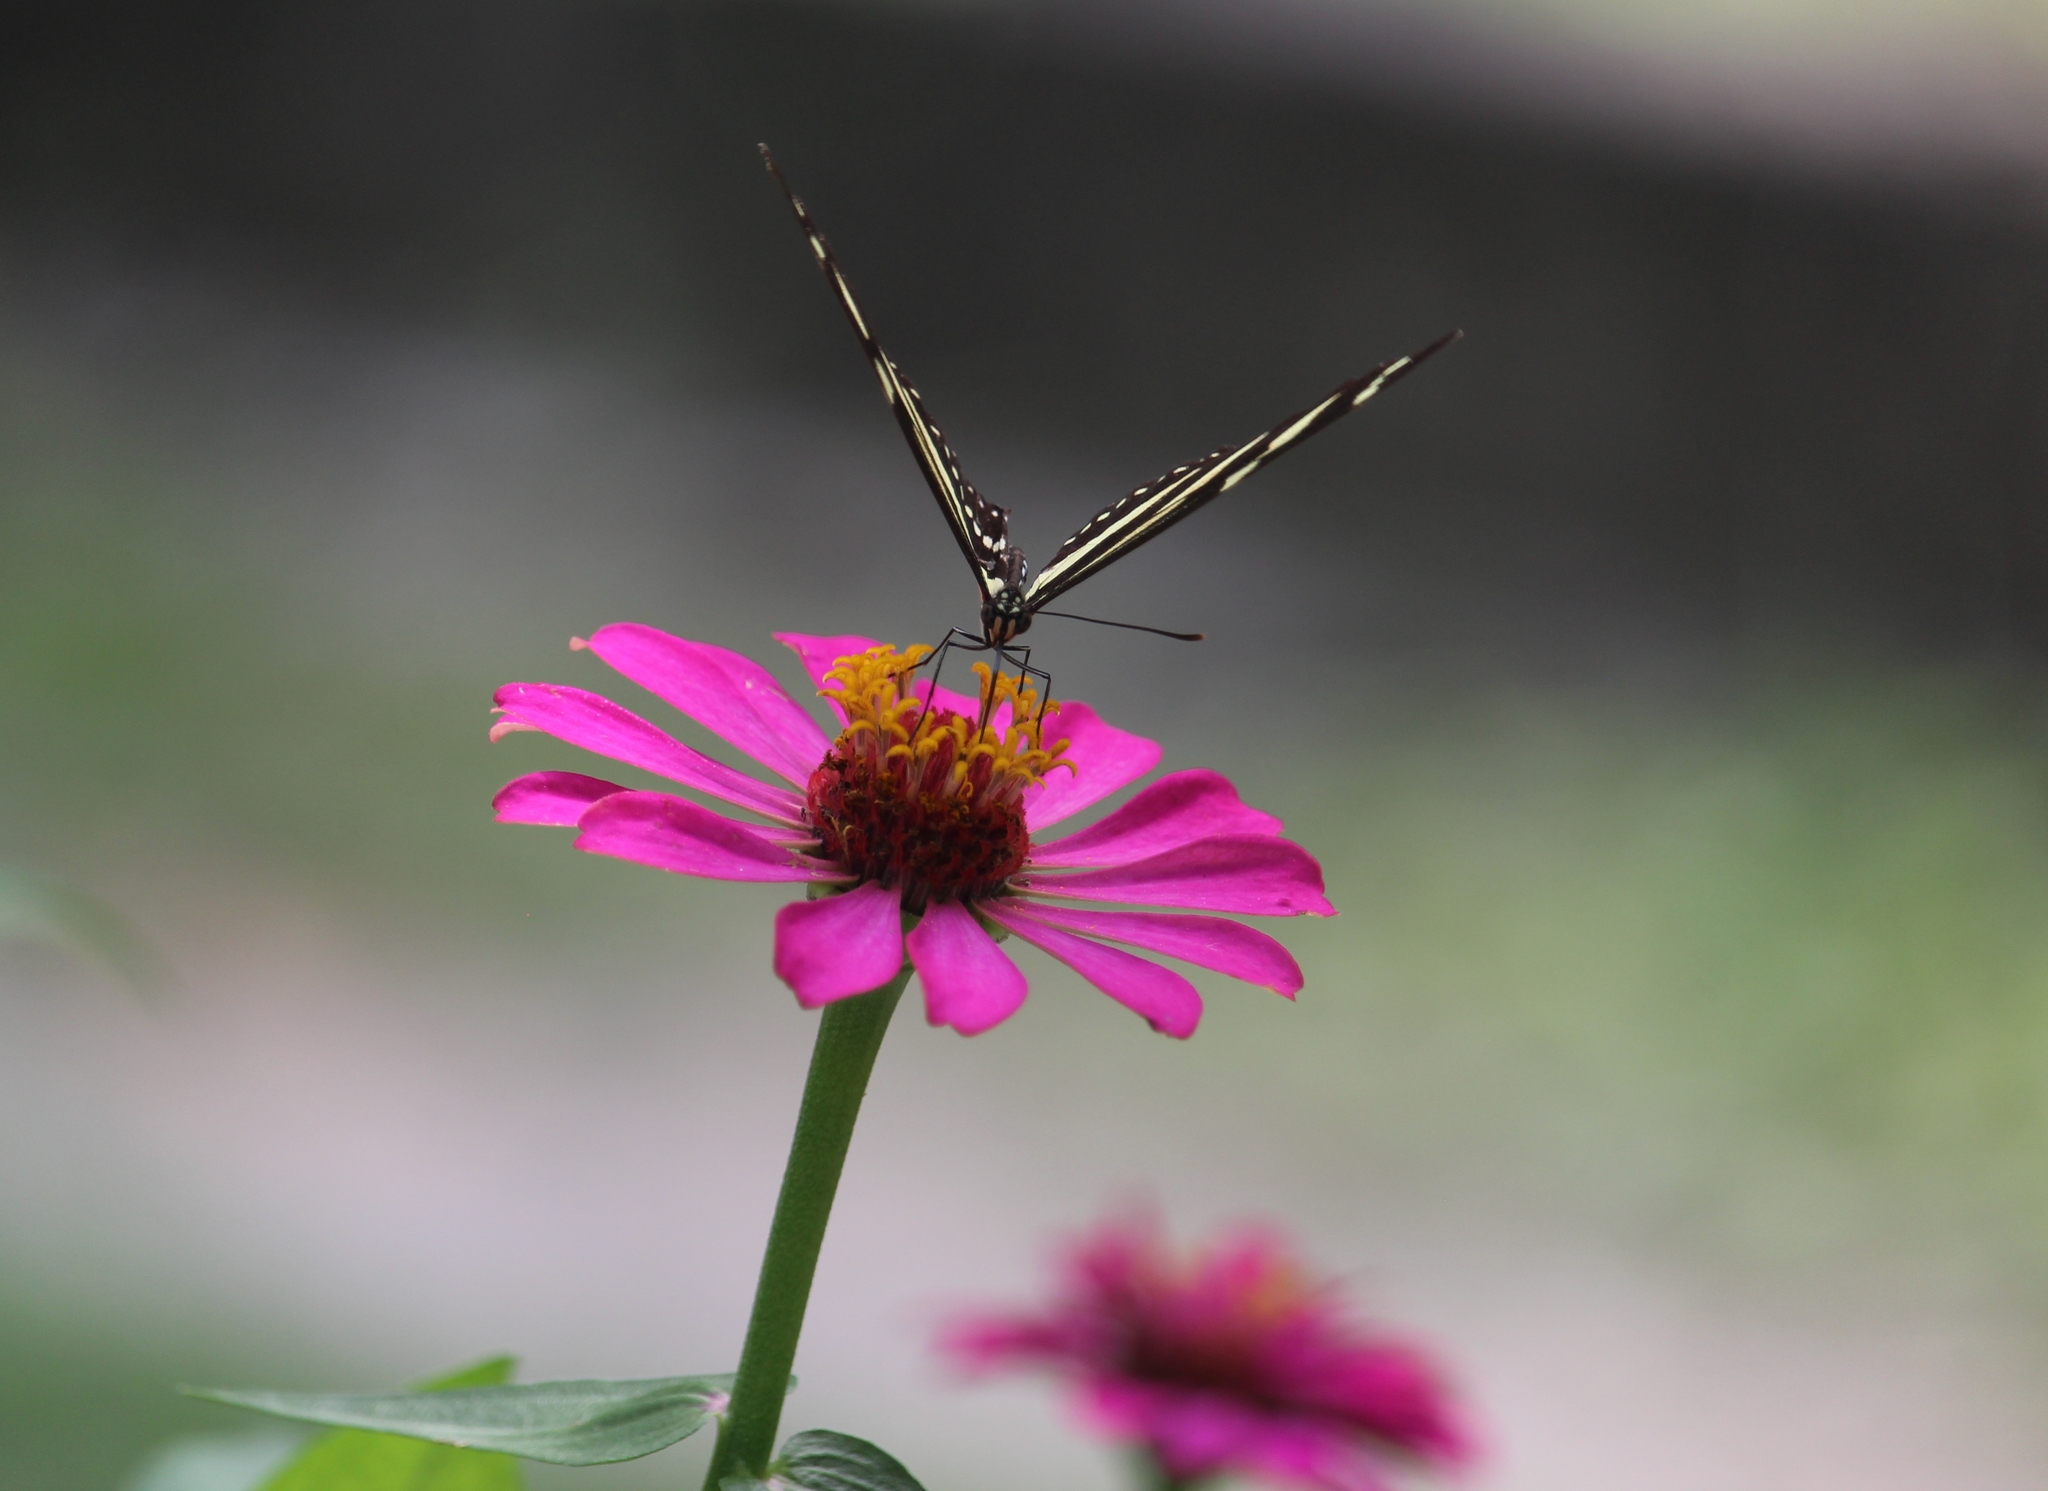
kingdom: Animalia
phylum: Arthropoda
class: Insecta
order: Lepidoptera
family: Nymphalidae
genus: Heliconius
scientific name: Heliconius charithonia
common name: Zebra long wing
